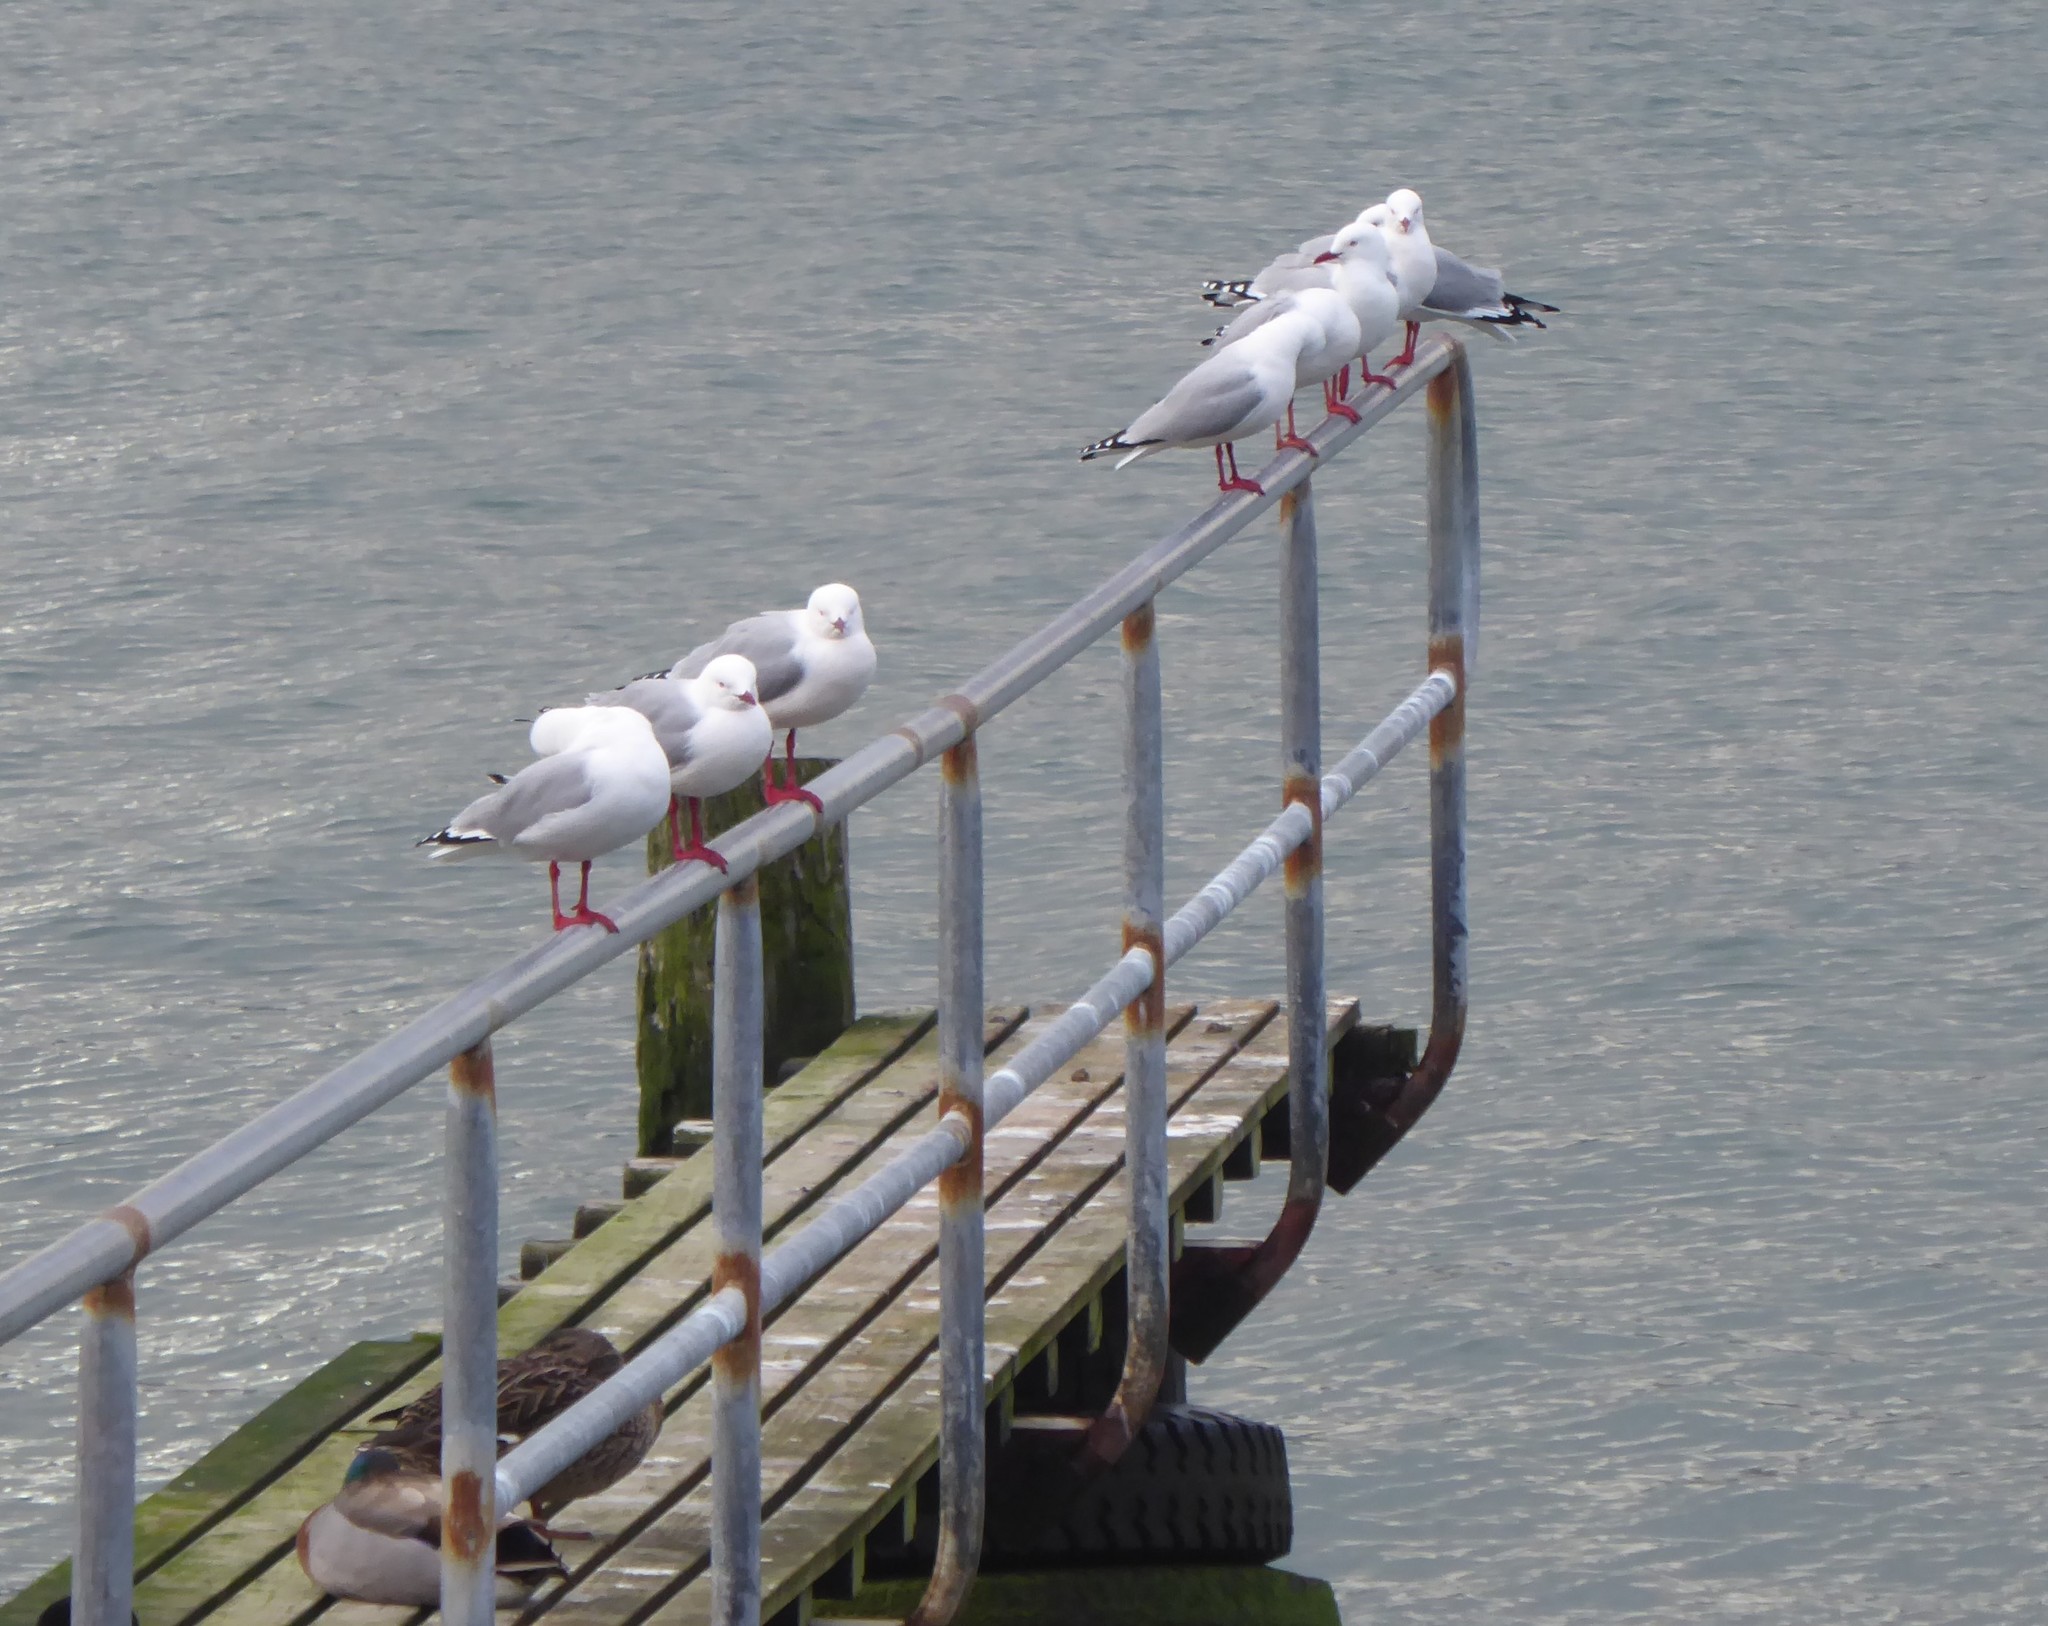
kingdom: Animalia
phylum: Chordata
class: Aves
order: Charadriiformes
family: Laridae
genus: Chroicocephalus
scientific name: Chroicocephalus novaehollandiae
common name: Silver gull
